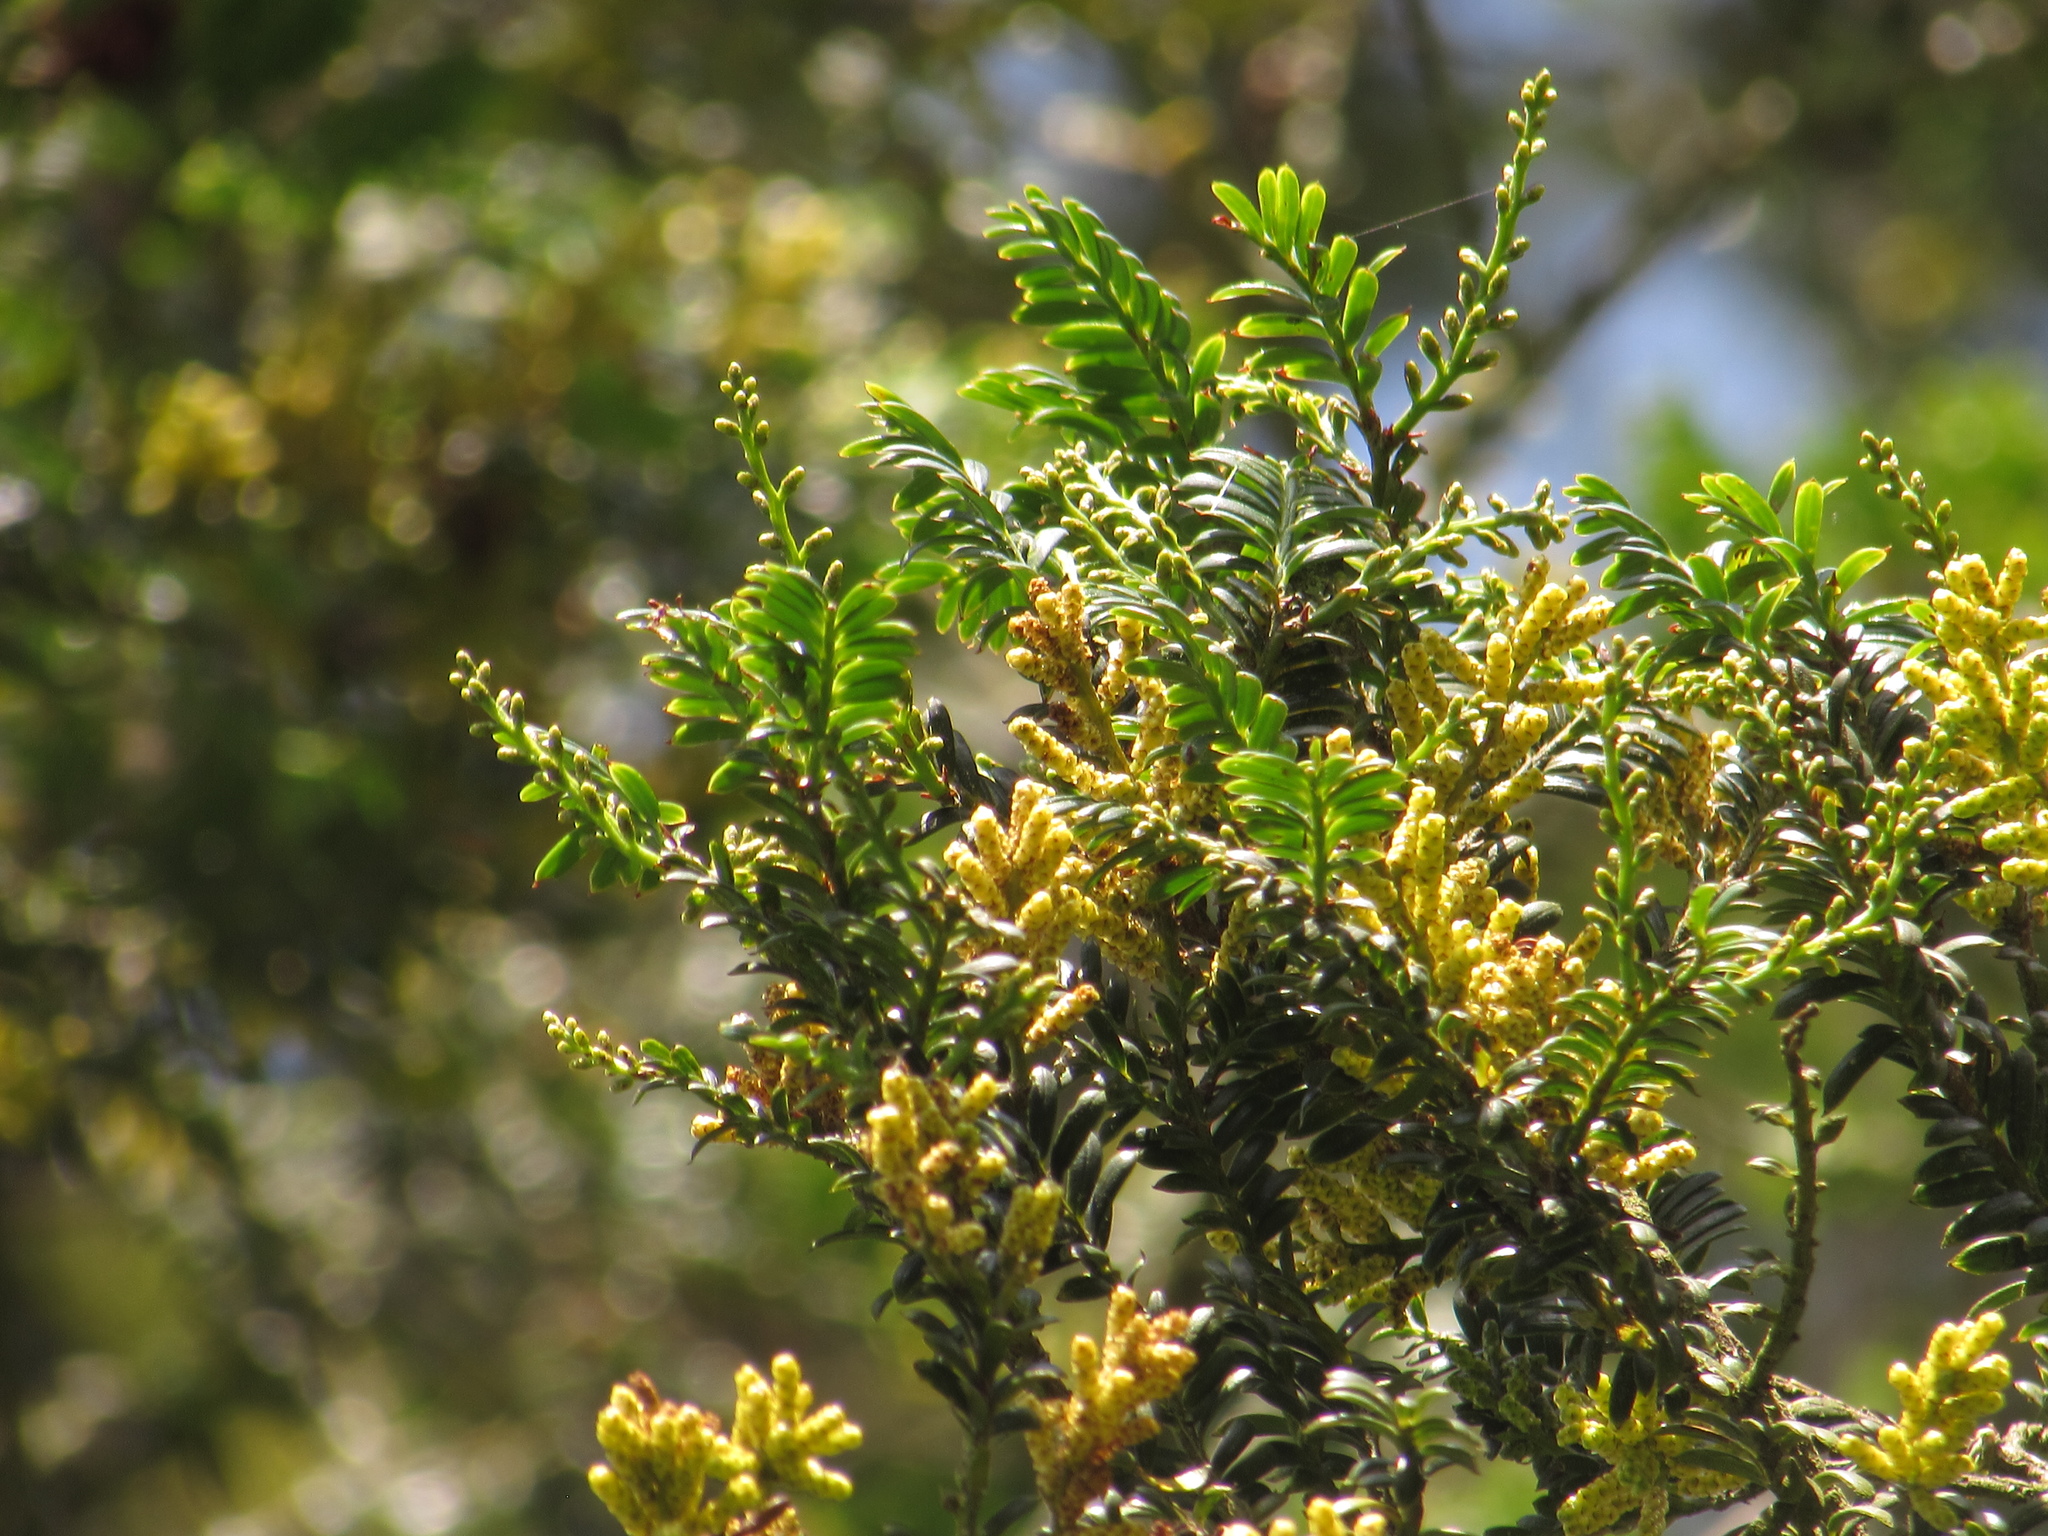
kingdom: Plantae
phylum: Tracheophyta
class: Pinopsida
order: Pinales
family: Podocarpaceae
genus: Prumnopitys
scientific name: Prumnopitys montana
